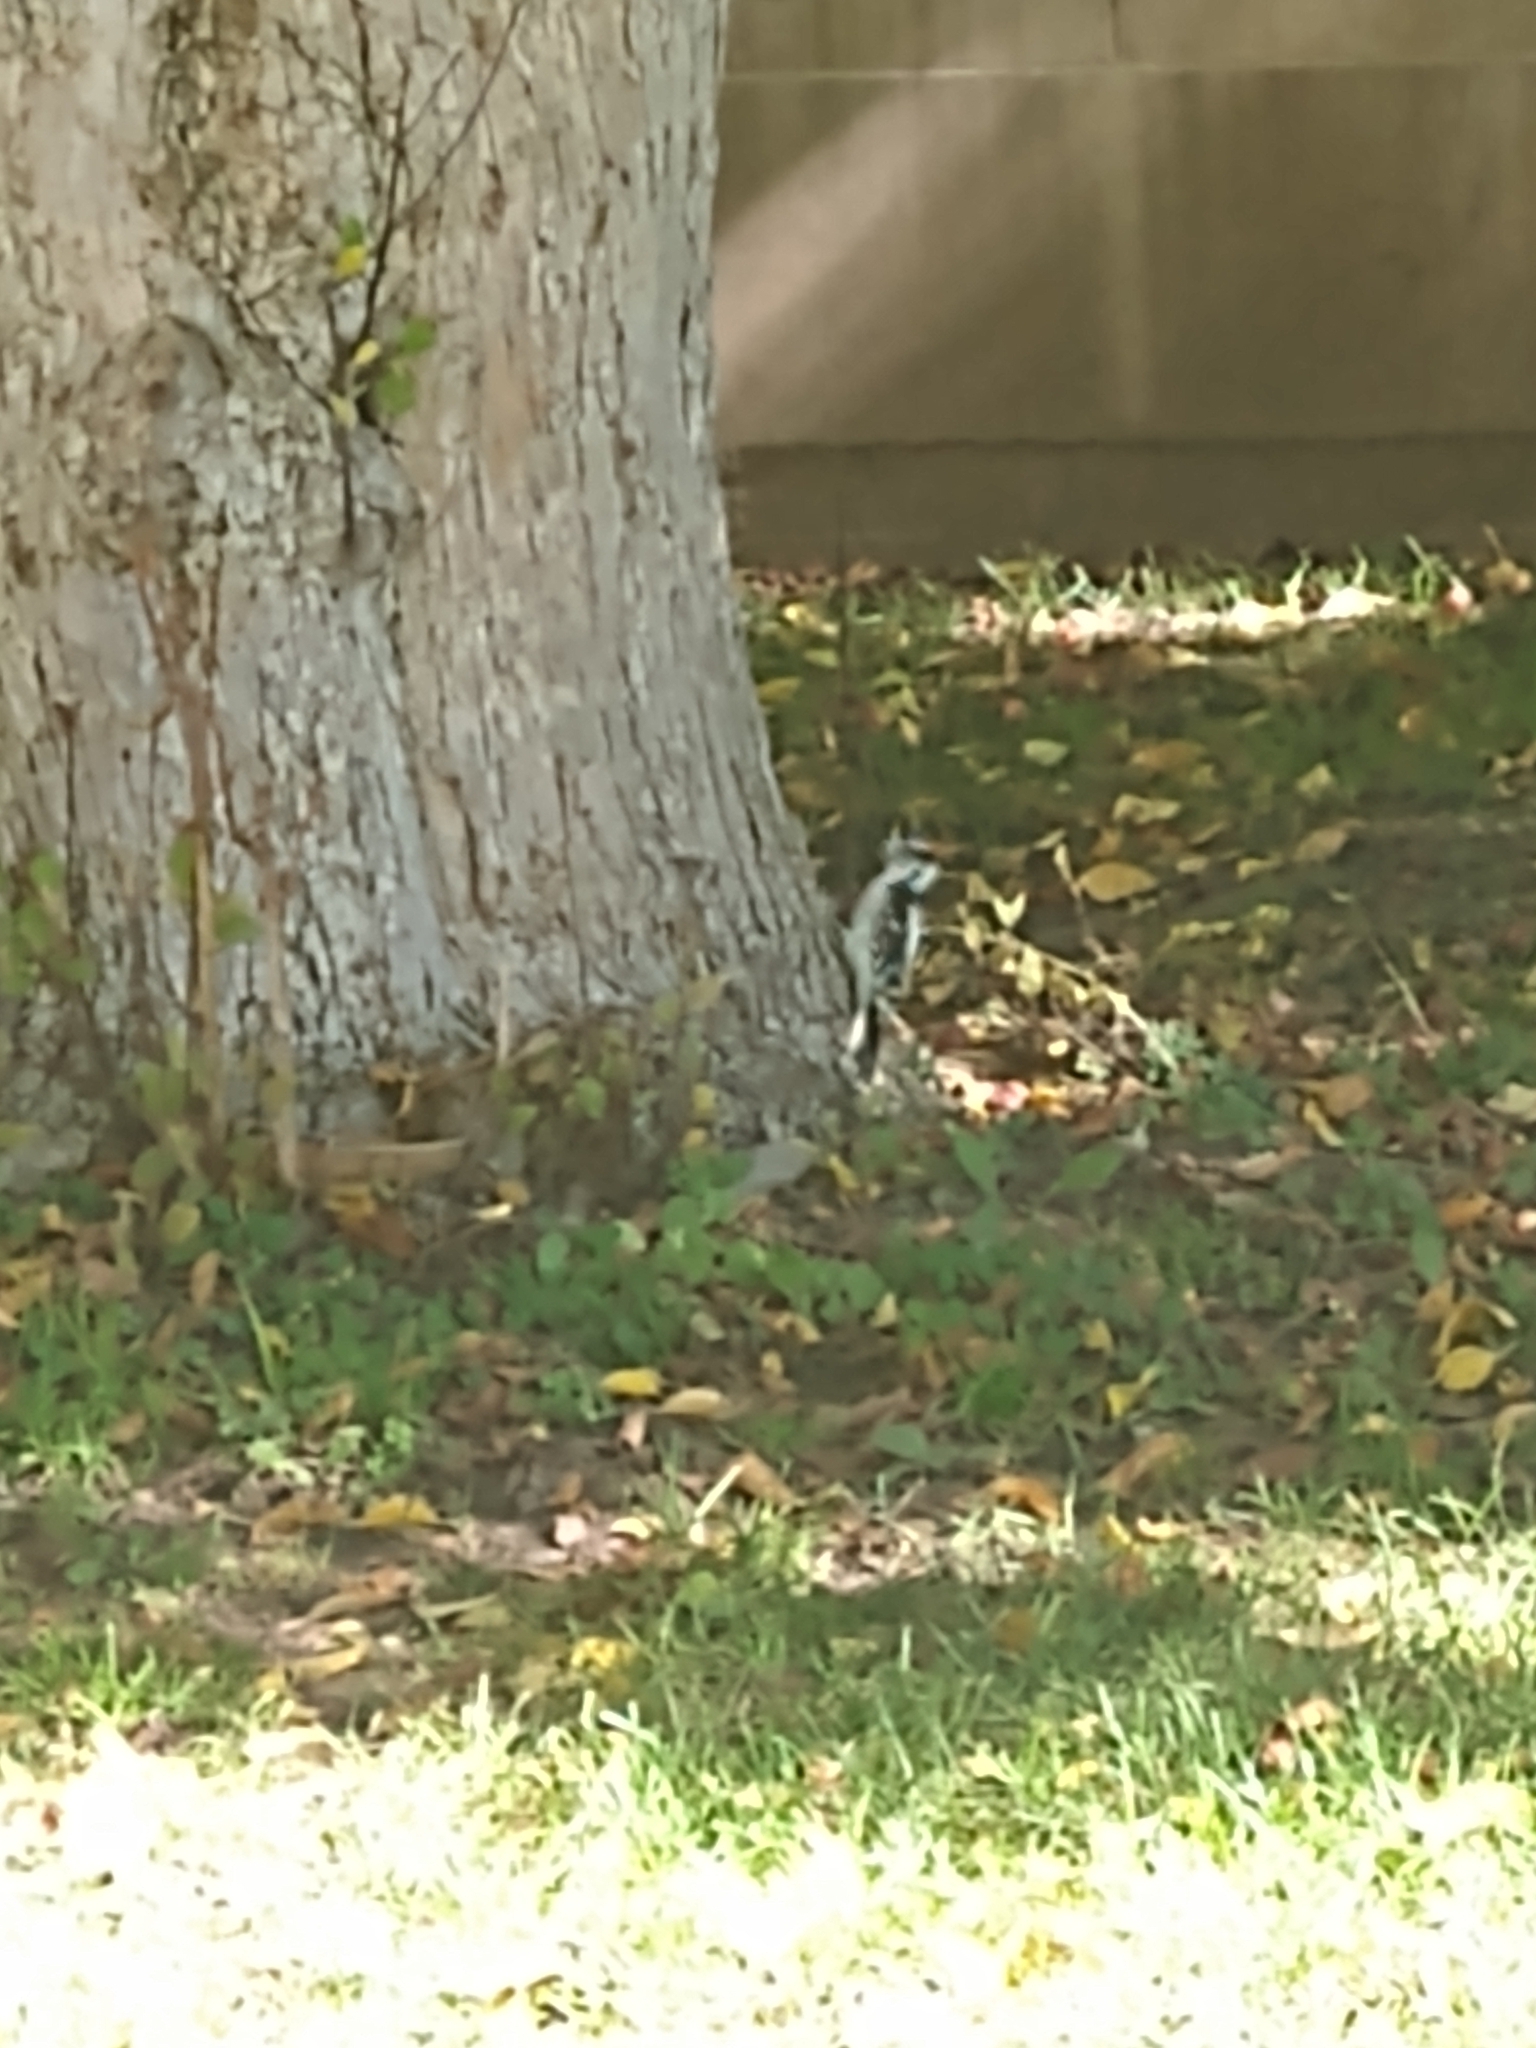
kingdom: Animalia
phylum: Chordata
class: Aves
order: Piciformes
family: Picidae
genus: Dryobates
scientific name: Dryobates pubescens
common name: Downy woodpecker
